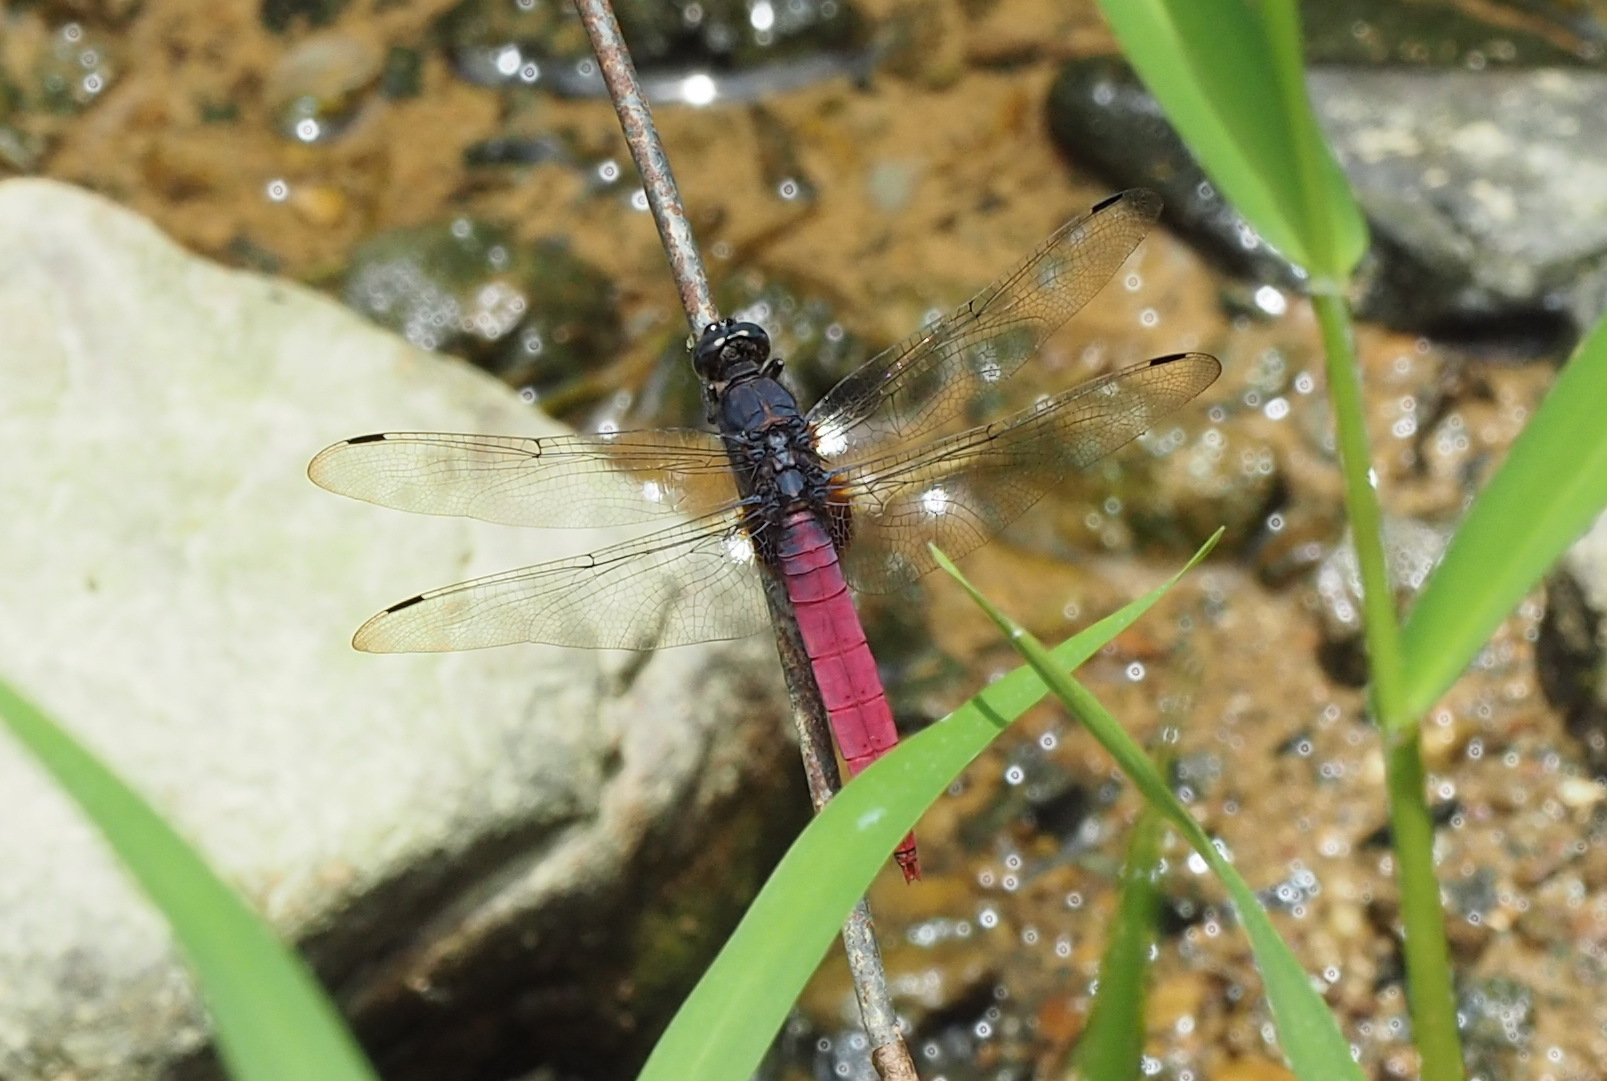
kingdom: Animalia
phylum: Arthropoda
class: Insecta
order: Odonata
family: Libellulidae
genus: Orthetrum
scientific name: Orthetrum pruinosum
